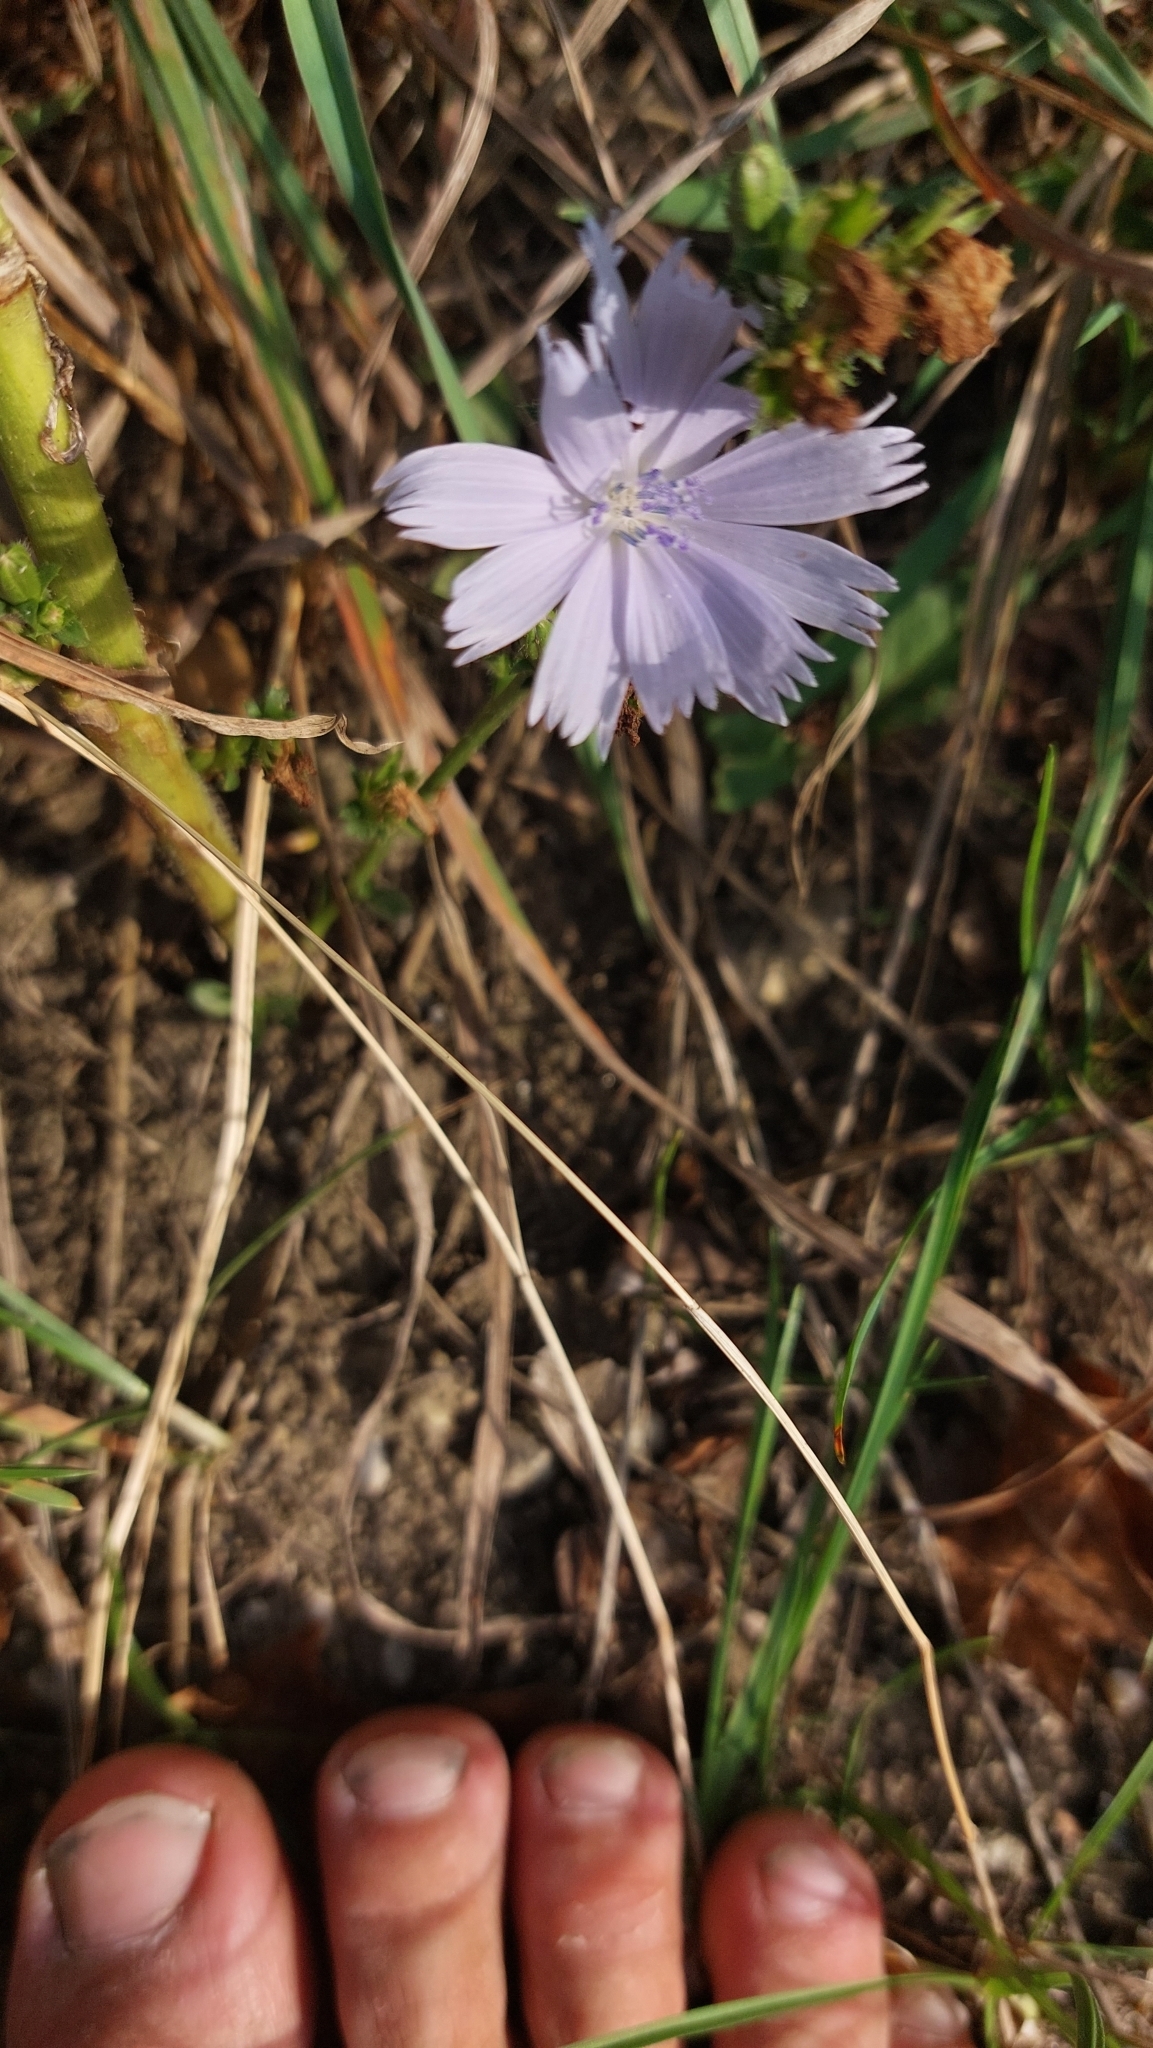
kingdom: Plantae
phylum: Tracheophyta
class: Magnoliopsida
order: Asterales
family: Asteraceae
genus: Cichorium
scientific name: Cichorium intybus
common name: Chicory
